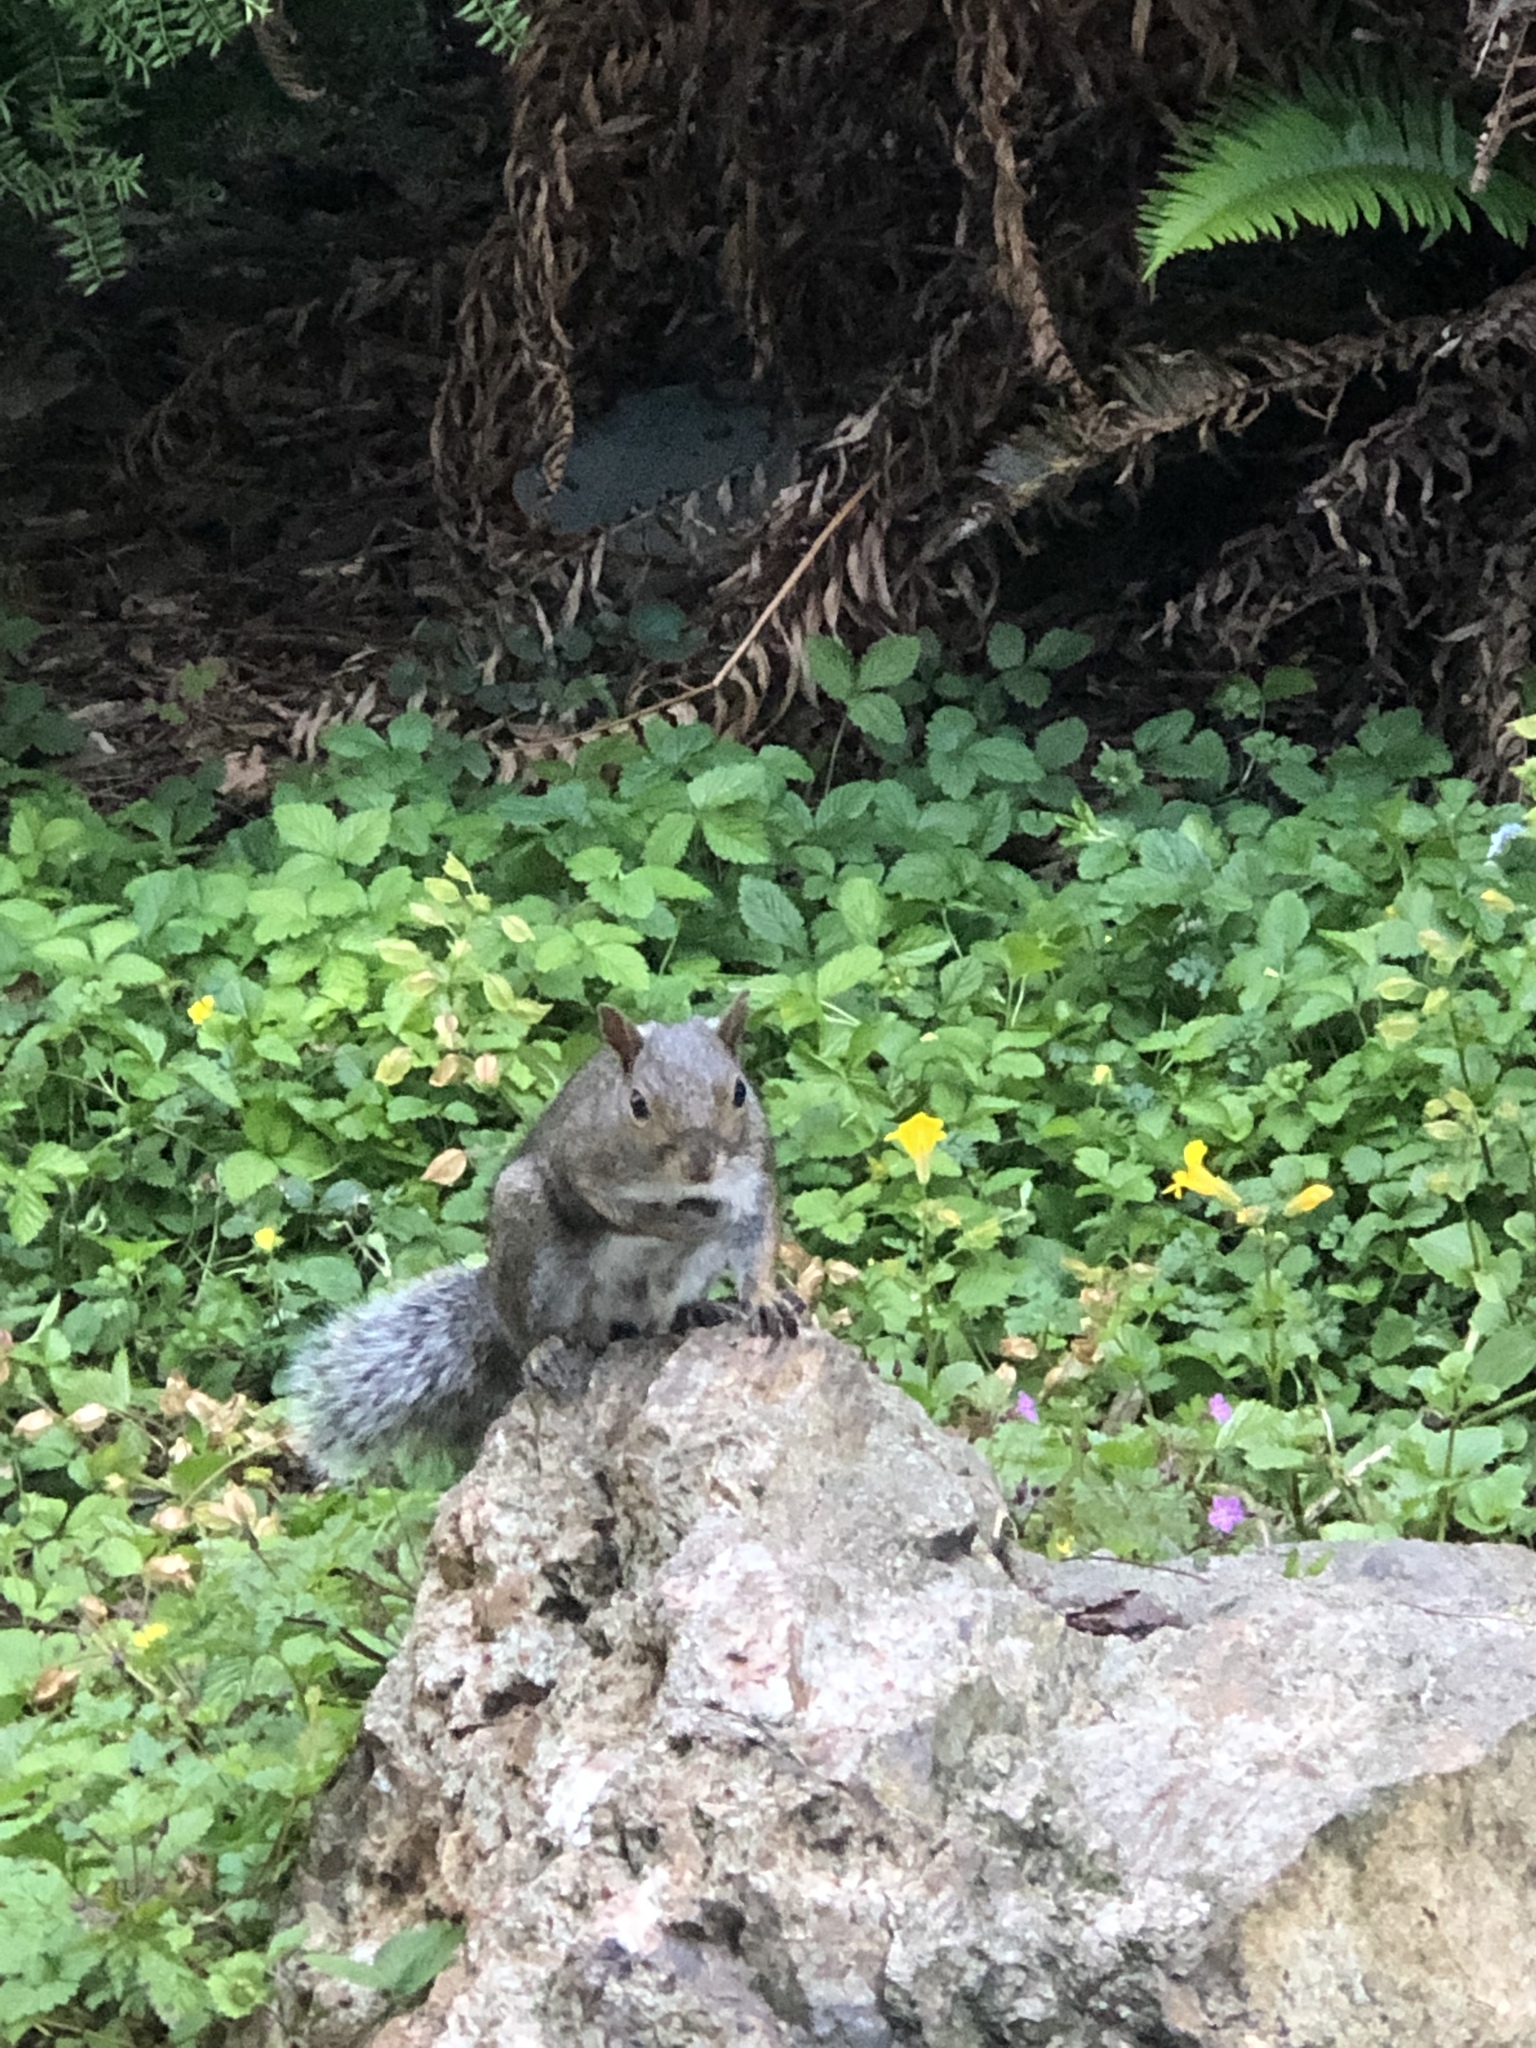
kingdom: Animalia
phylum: Chordata
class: Mammalia
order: Rodentia
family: Sciuridae
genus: Sciurus
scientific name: Sciurus carolinensis
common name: Eastern gray squirrel
